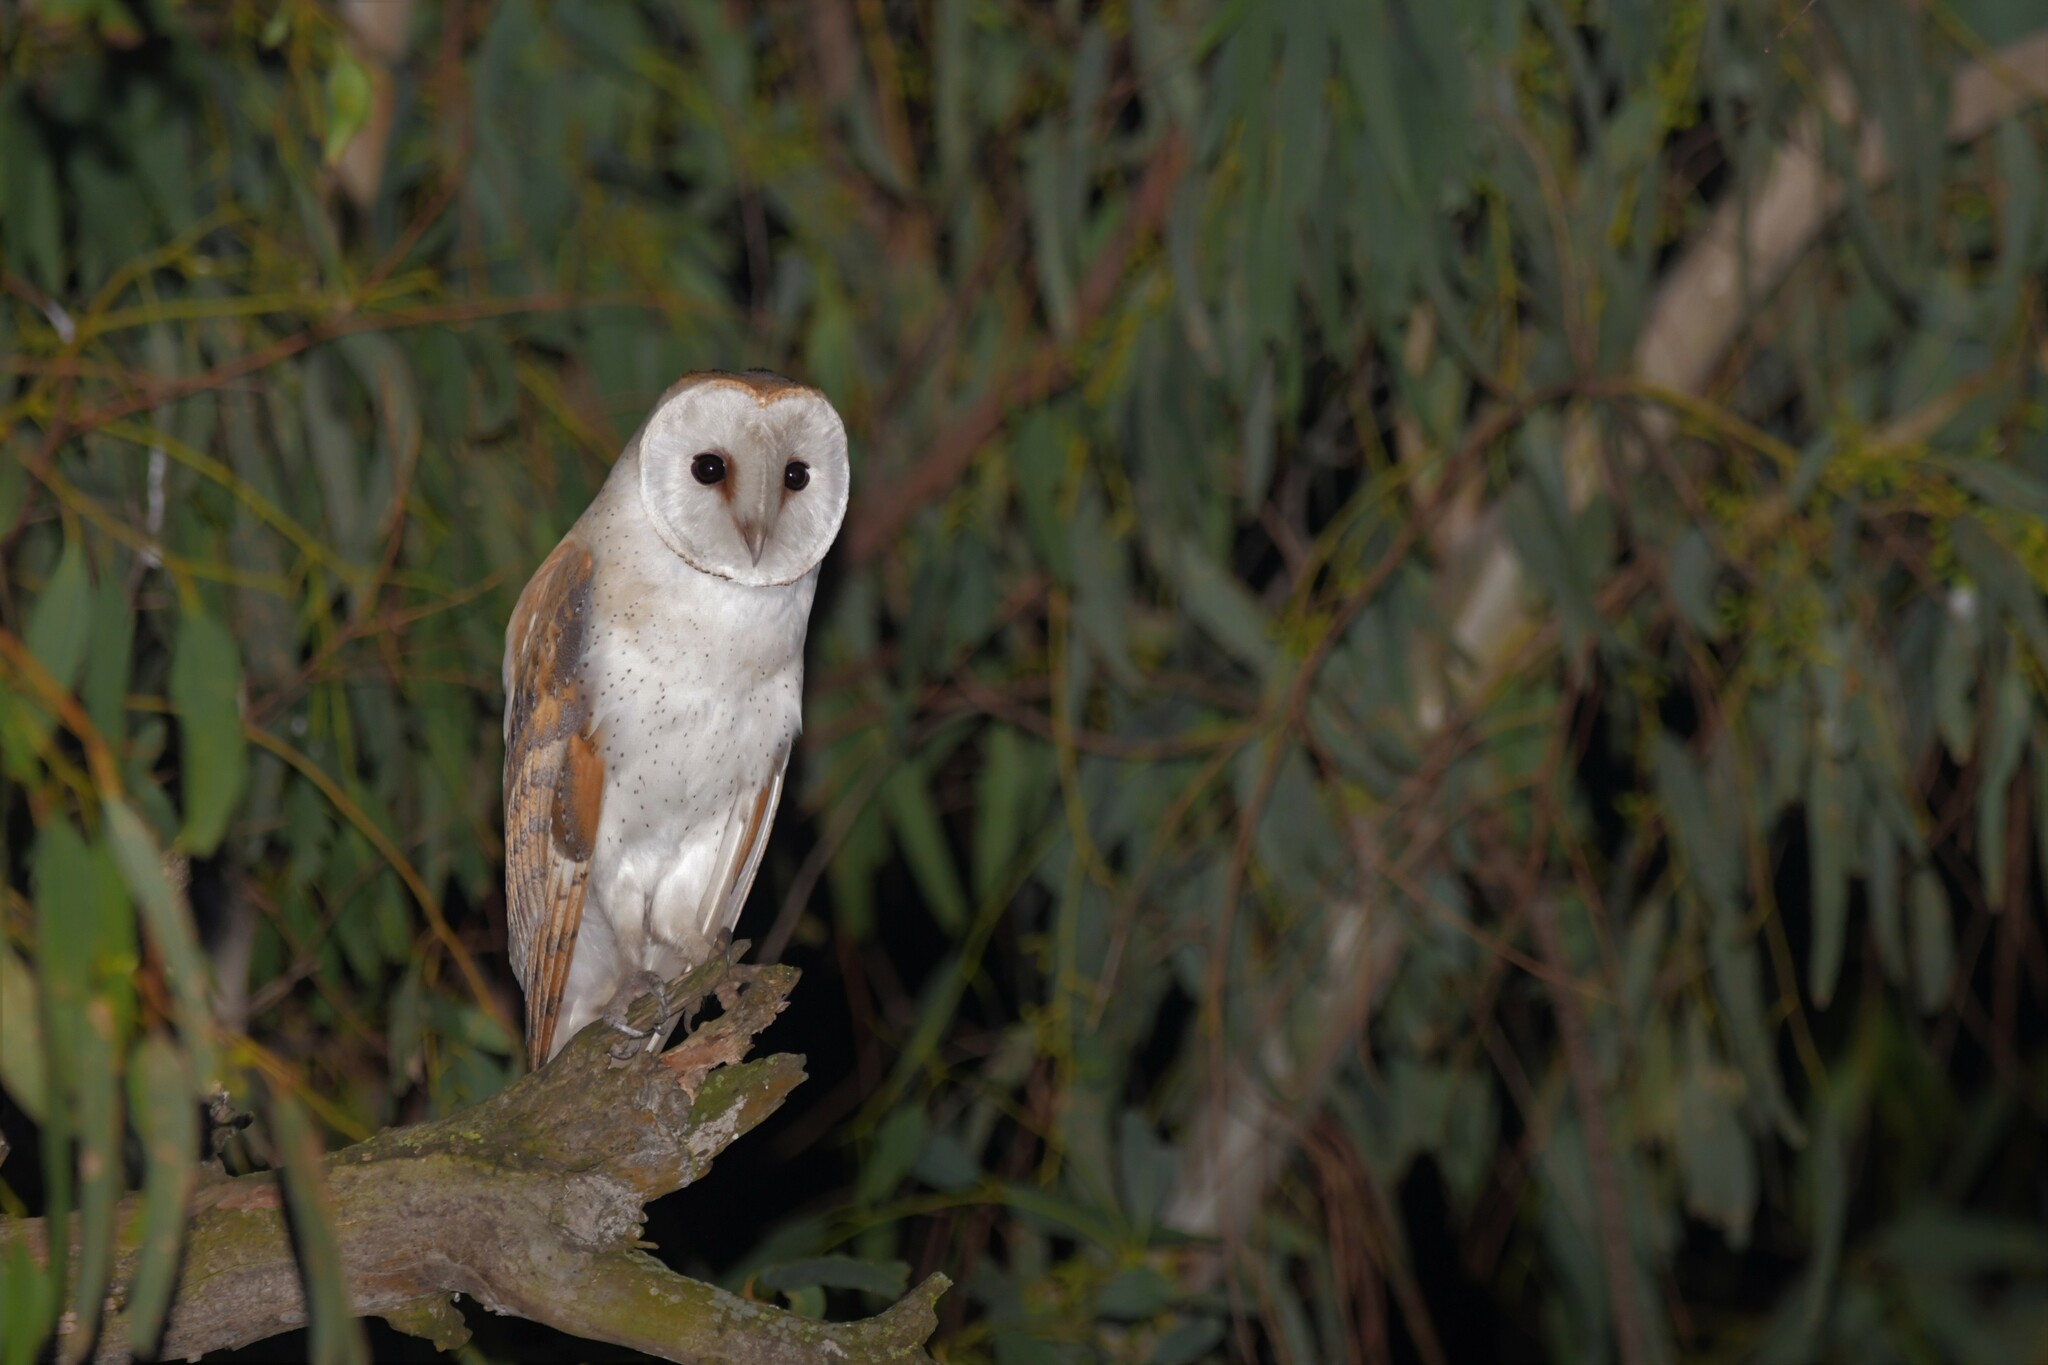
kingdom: Animalia
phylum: Chordata
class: Aves
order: Strigiformes
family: Tytonidae
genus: Tyto
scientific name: Tyto alba
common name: Barn owl
